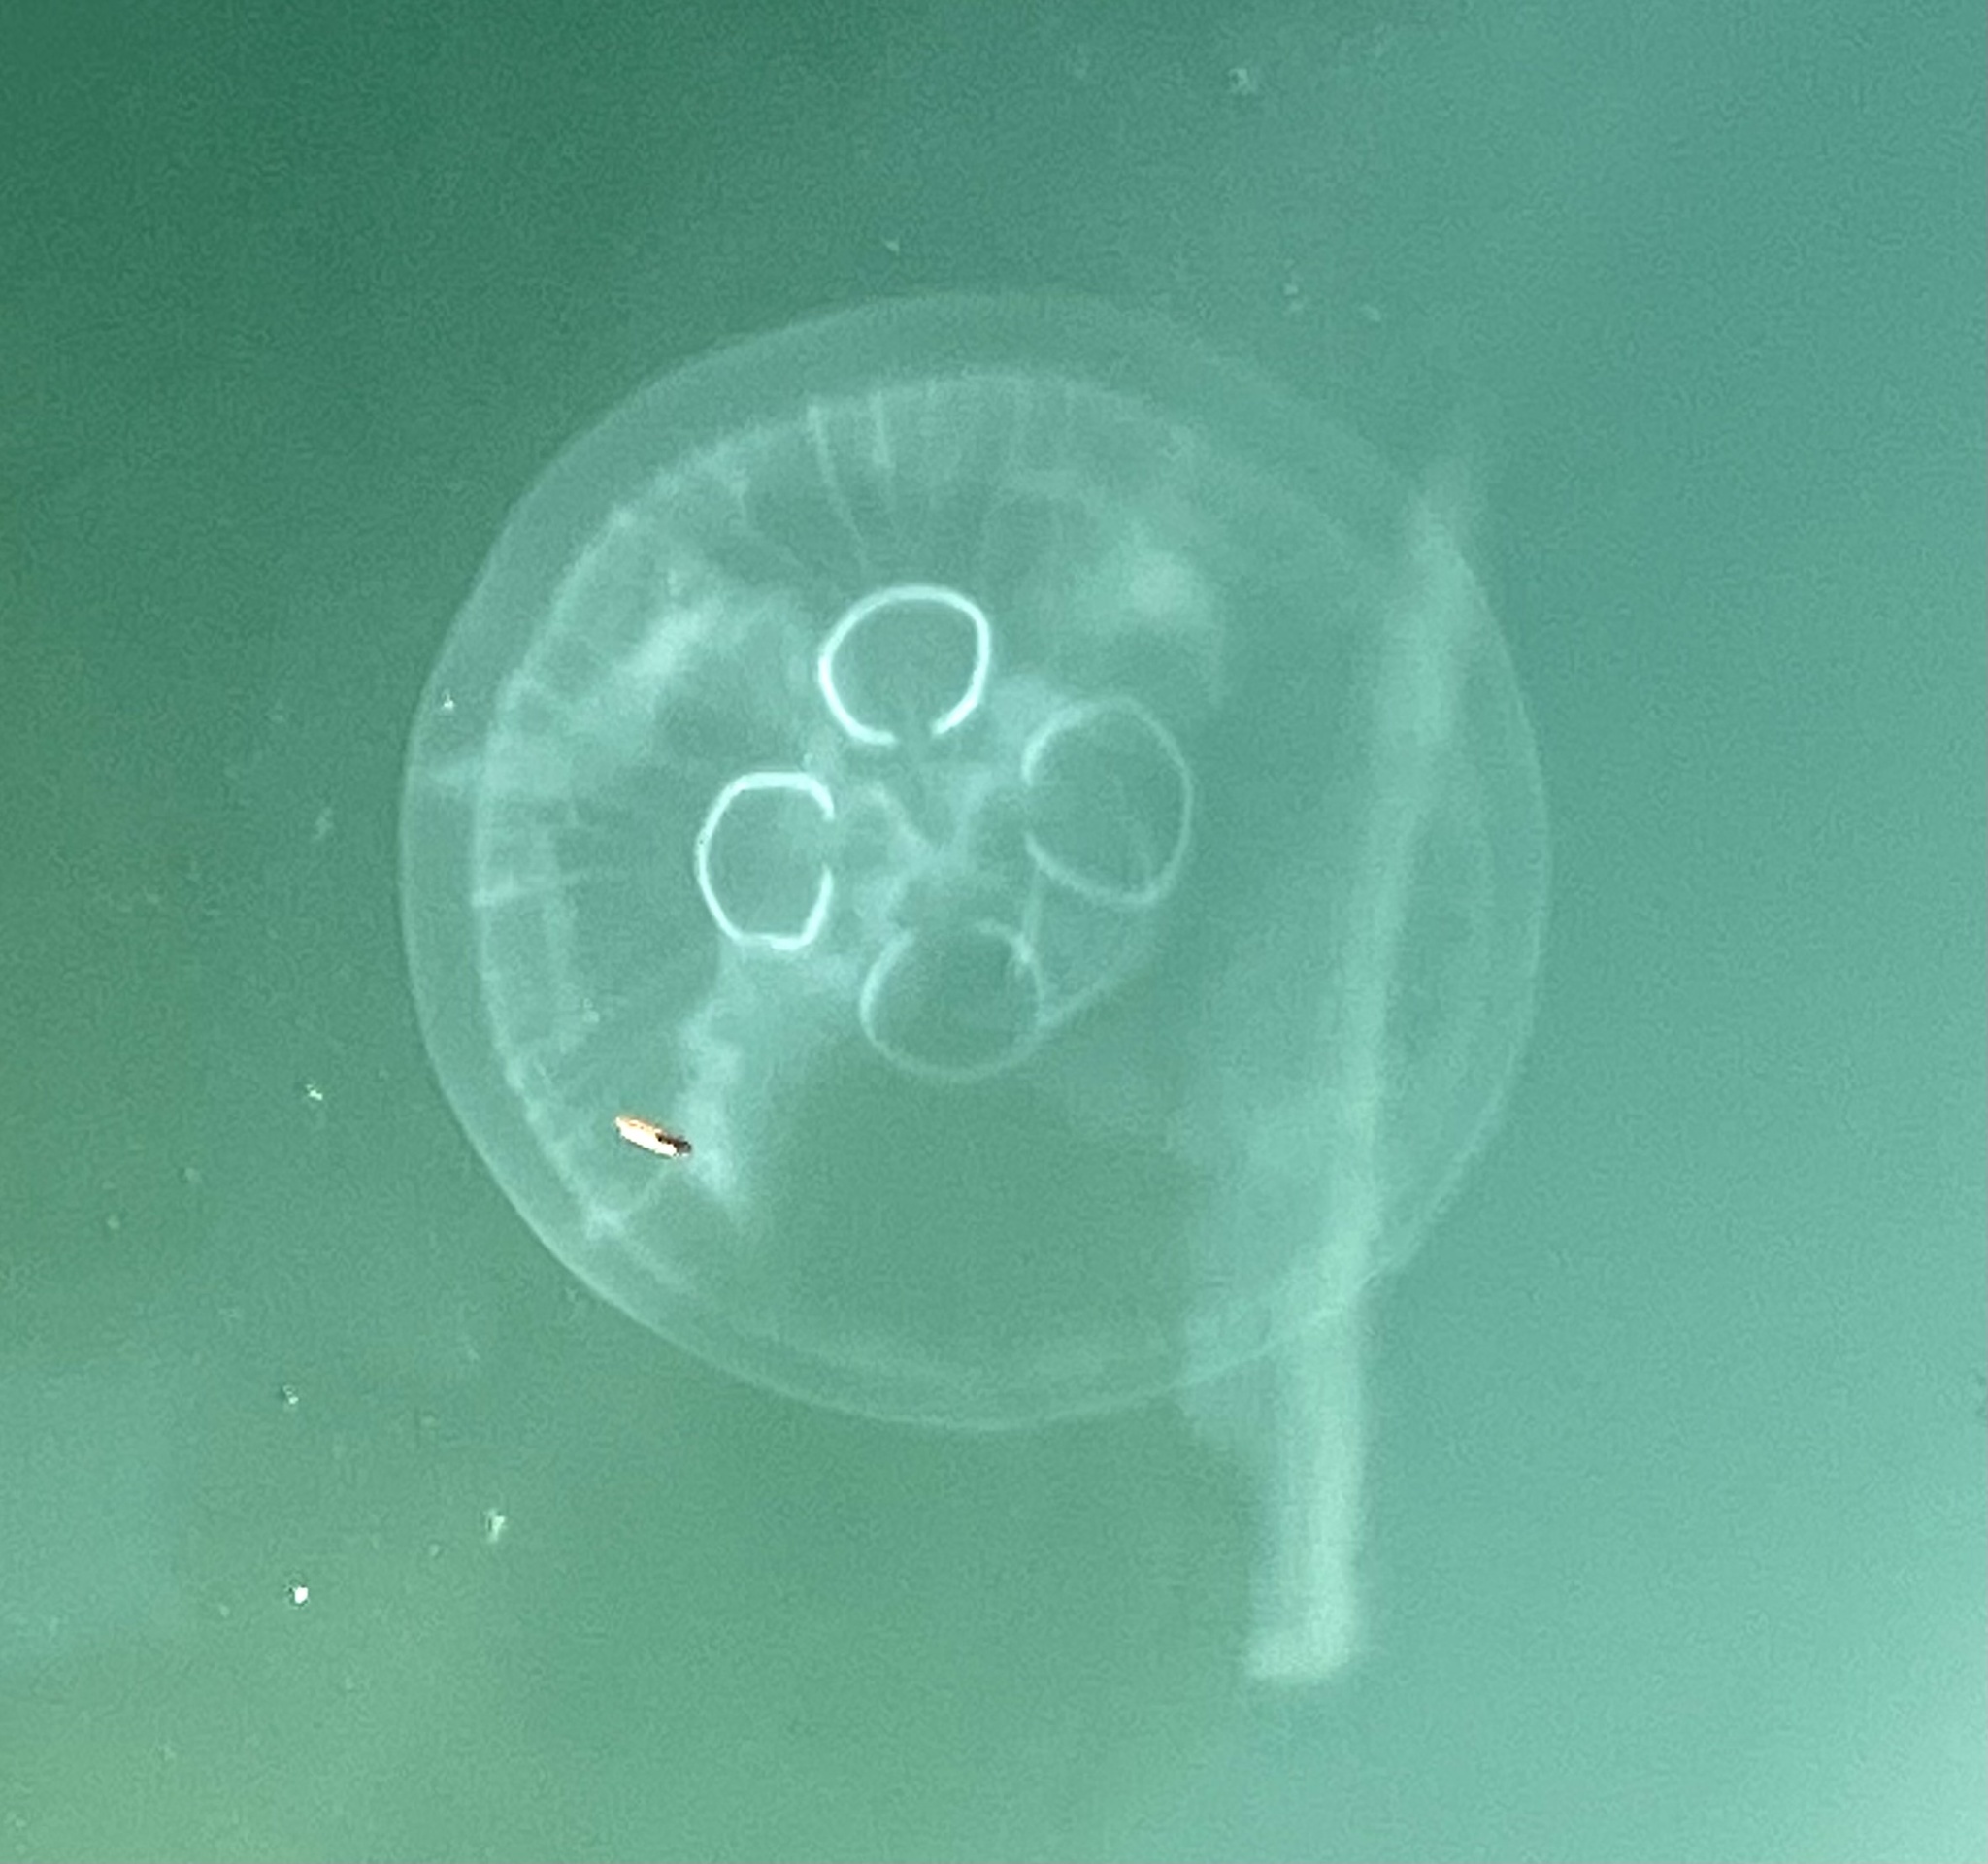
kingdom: Animalia
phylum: Cnidaria
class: Scyphozoa
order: Semaeostomeae
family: Ulmaridae
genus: Aurelia
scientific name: Aurelia aurita
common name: Moon jellyfish
